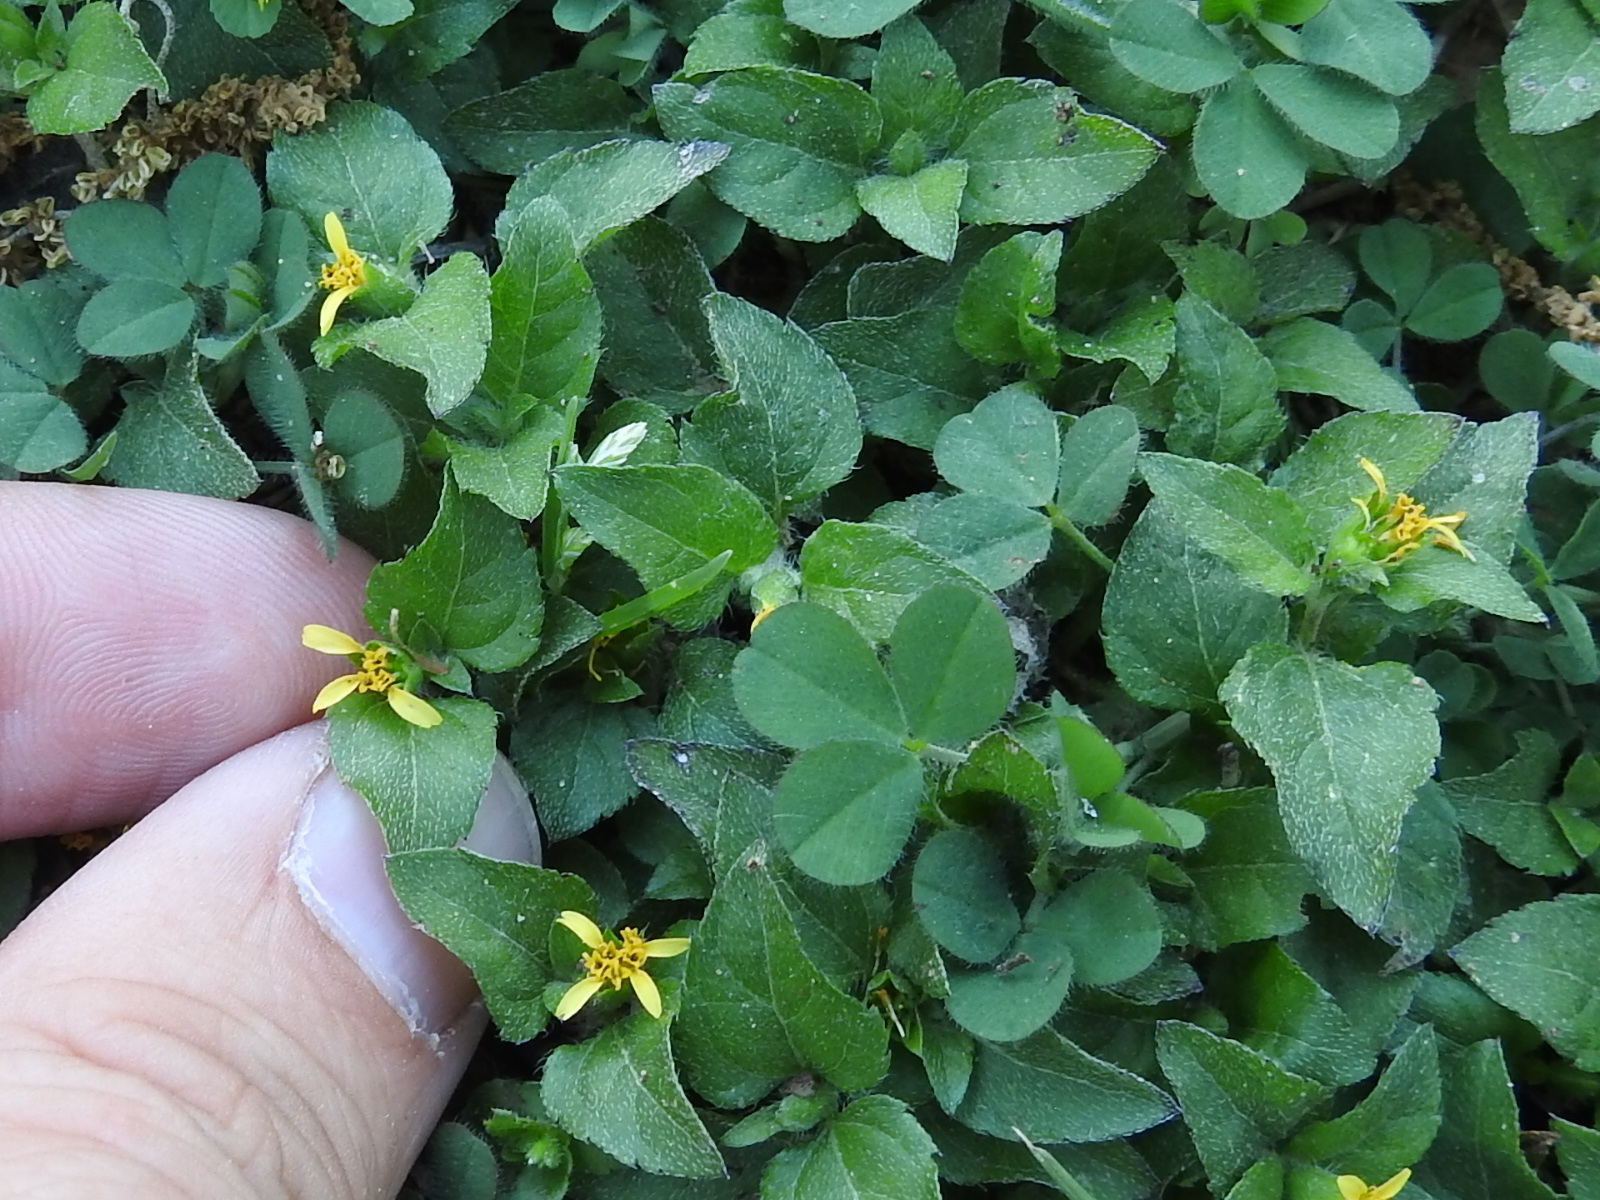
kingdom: Plantae
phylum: Tracheophyta
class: Magnoliopsida
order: Asterales
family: Asteraceae
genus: Calyptocarpus
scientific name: Calyptocarpus vialis
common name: Straggler daisy
